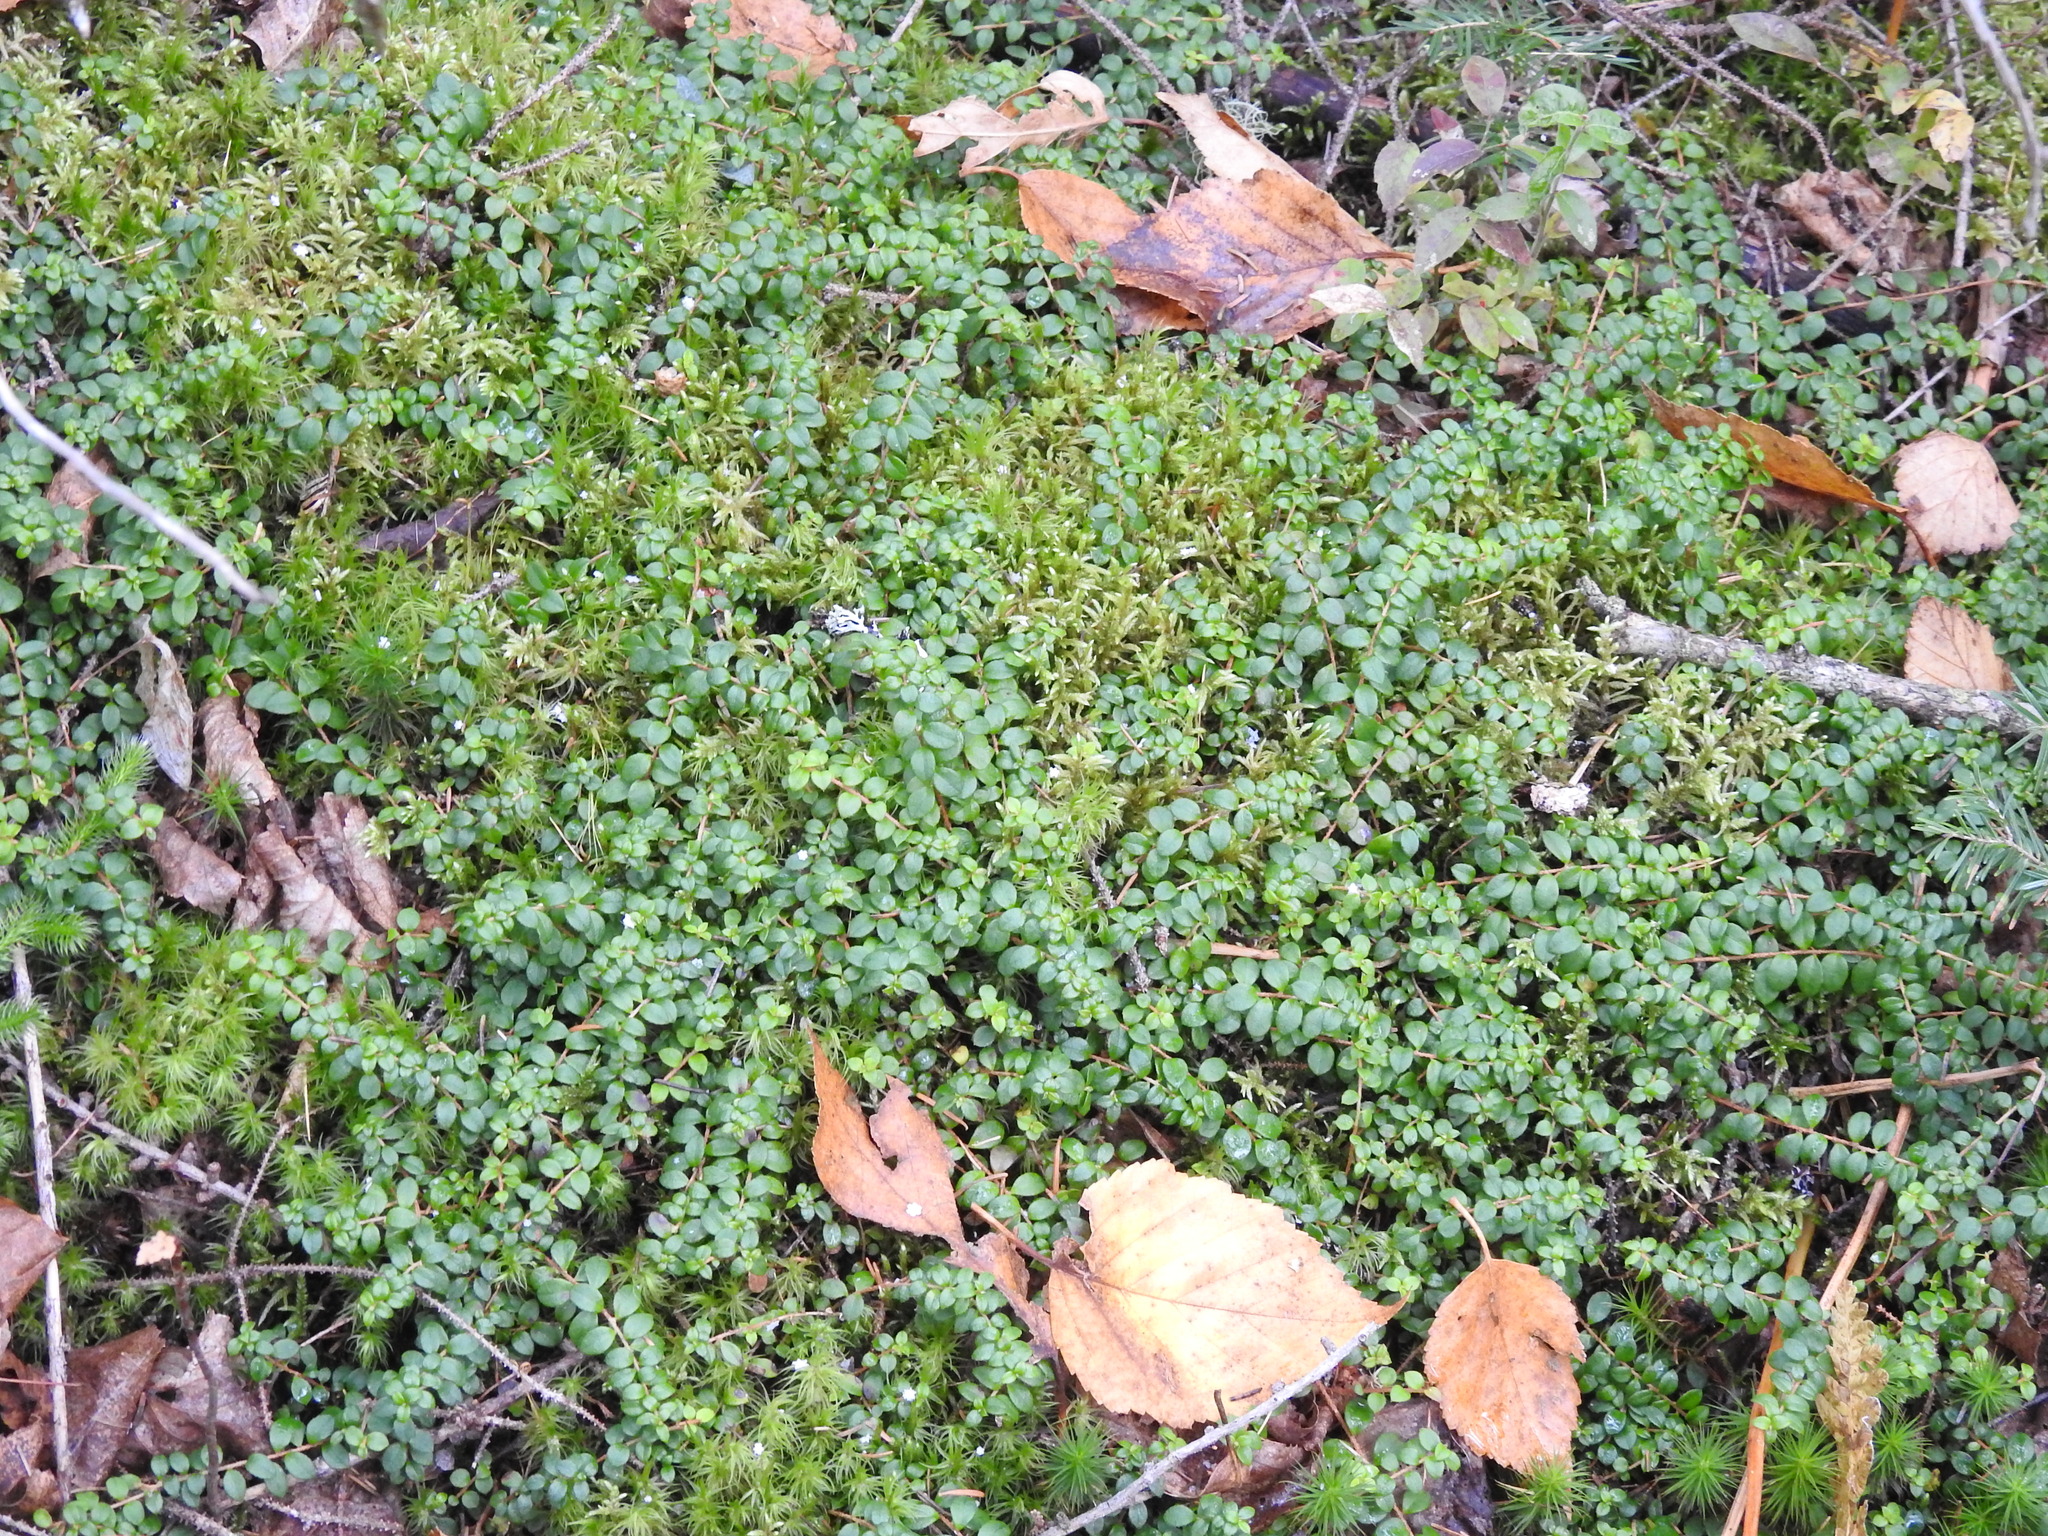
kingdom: Plantae
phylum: Tracheophyta
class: Magnoliopsida
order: Ericales
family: Ericaceae
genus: Gaultheria
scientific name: Gaultheria hispidula
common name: Cancer wintergreen
